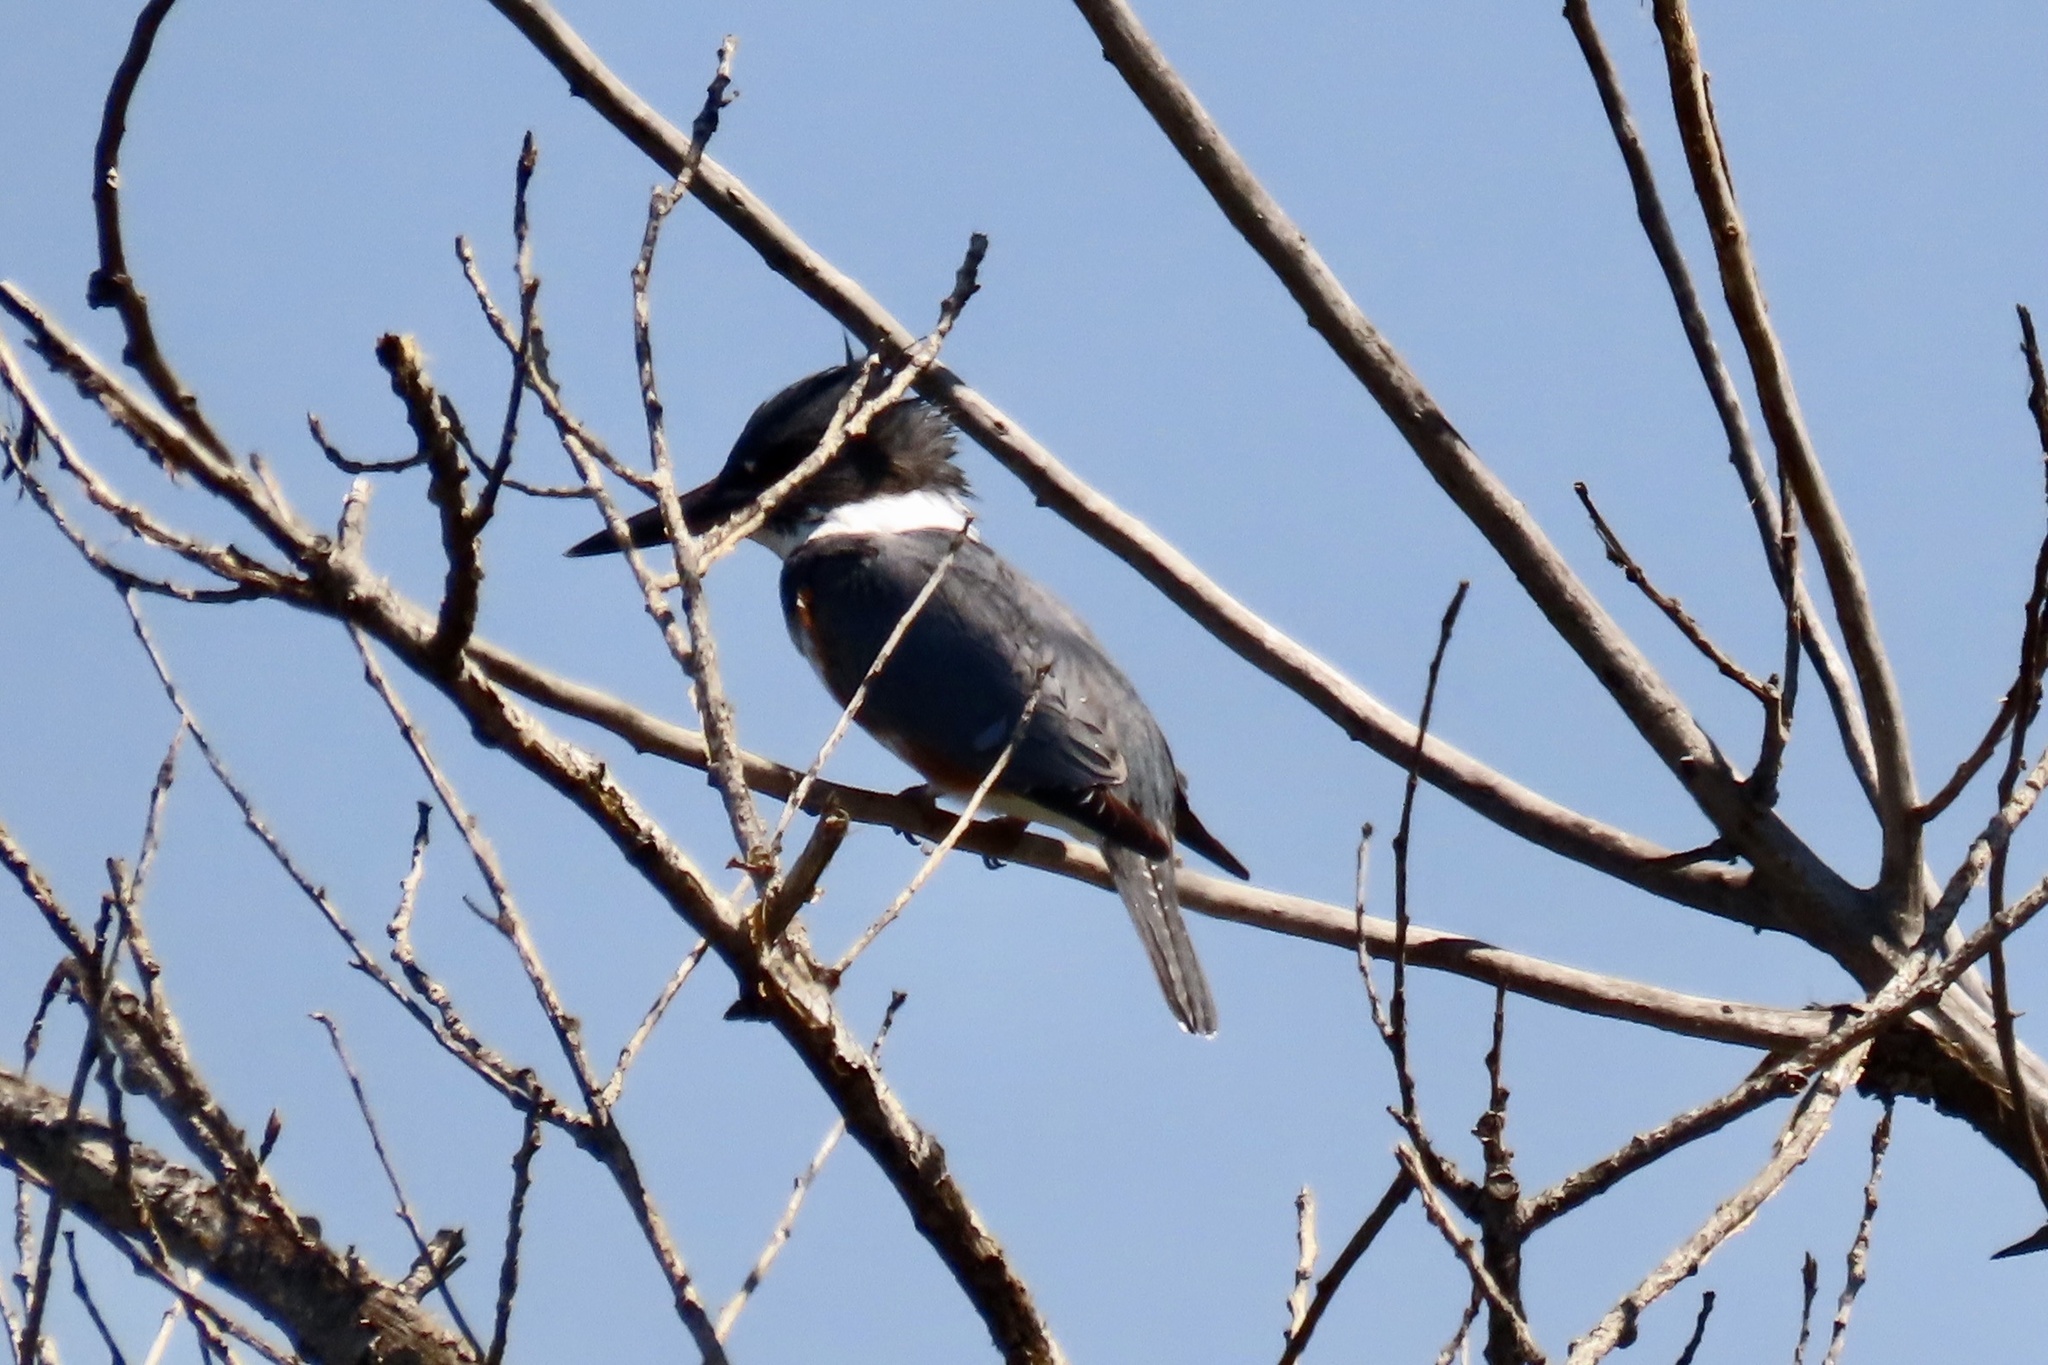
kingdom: Animalia
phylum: Chordata
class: Aves
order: Coraciiformes
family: Alcedinidae
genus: Megaceryle
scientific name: Megaceryle alcyon
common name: Belted kingfisher
